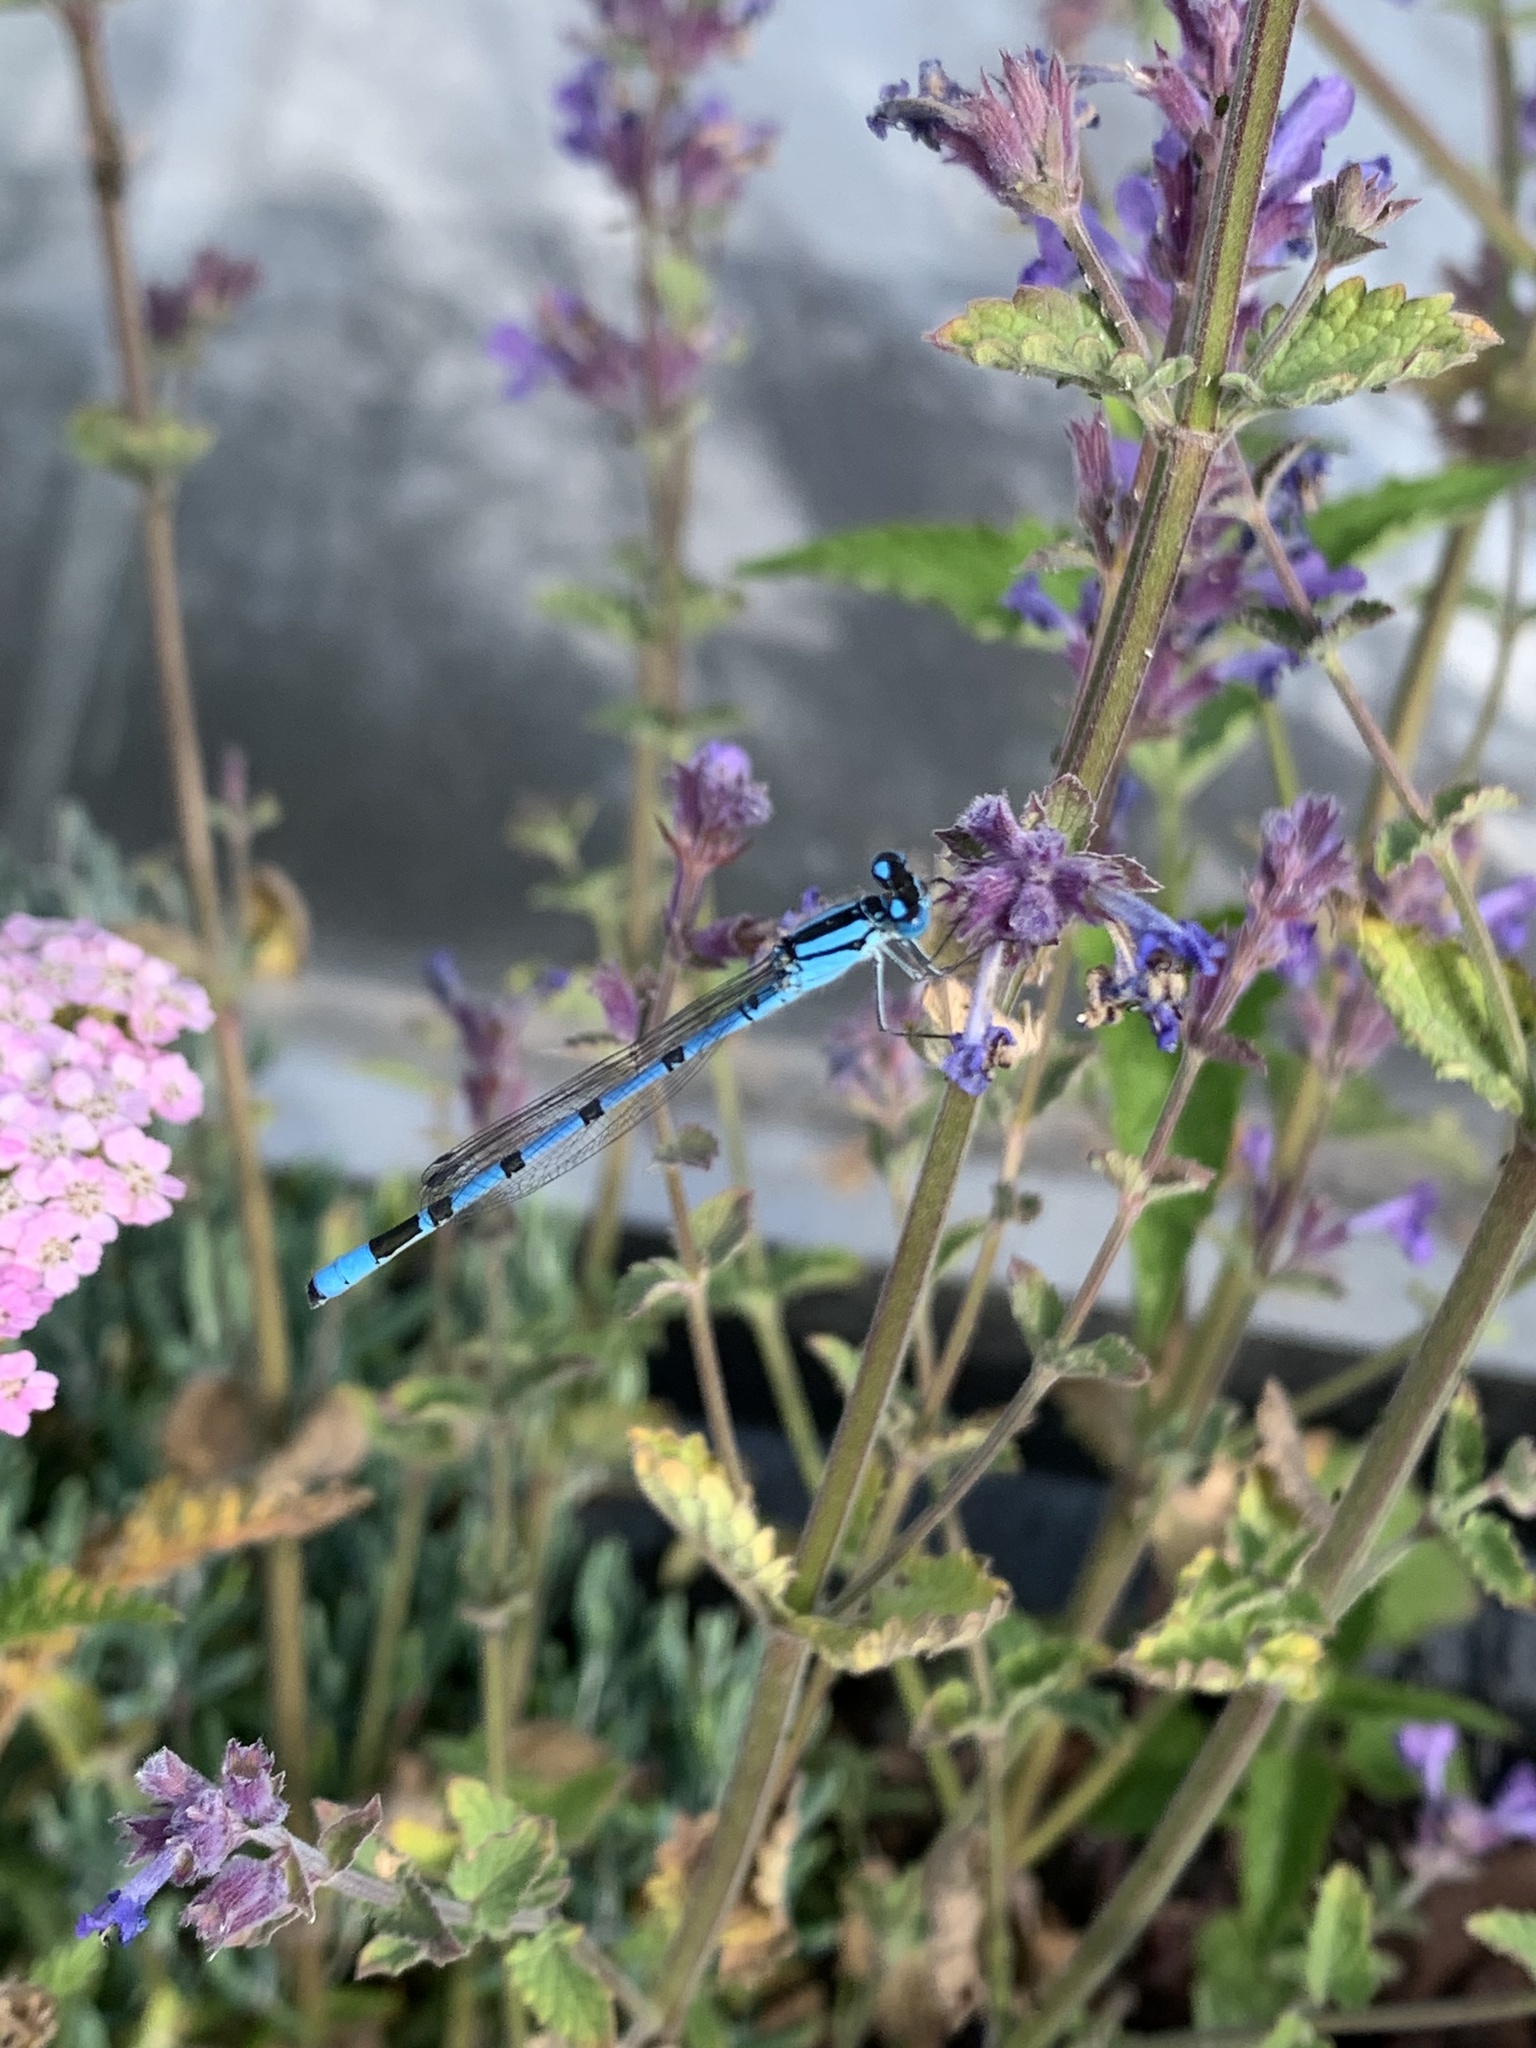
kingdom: Animalia
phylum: Arthropoda
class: Insecta
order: Odonata
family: Coenagrionidae
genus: Enallagma
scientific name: Enallagma cyathigerum
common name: Common blue damselfly
